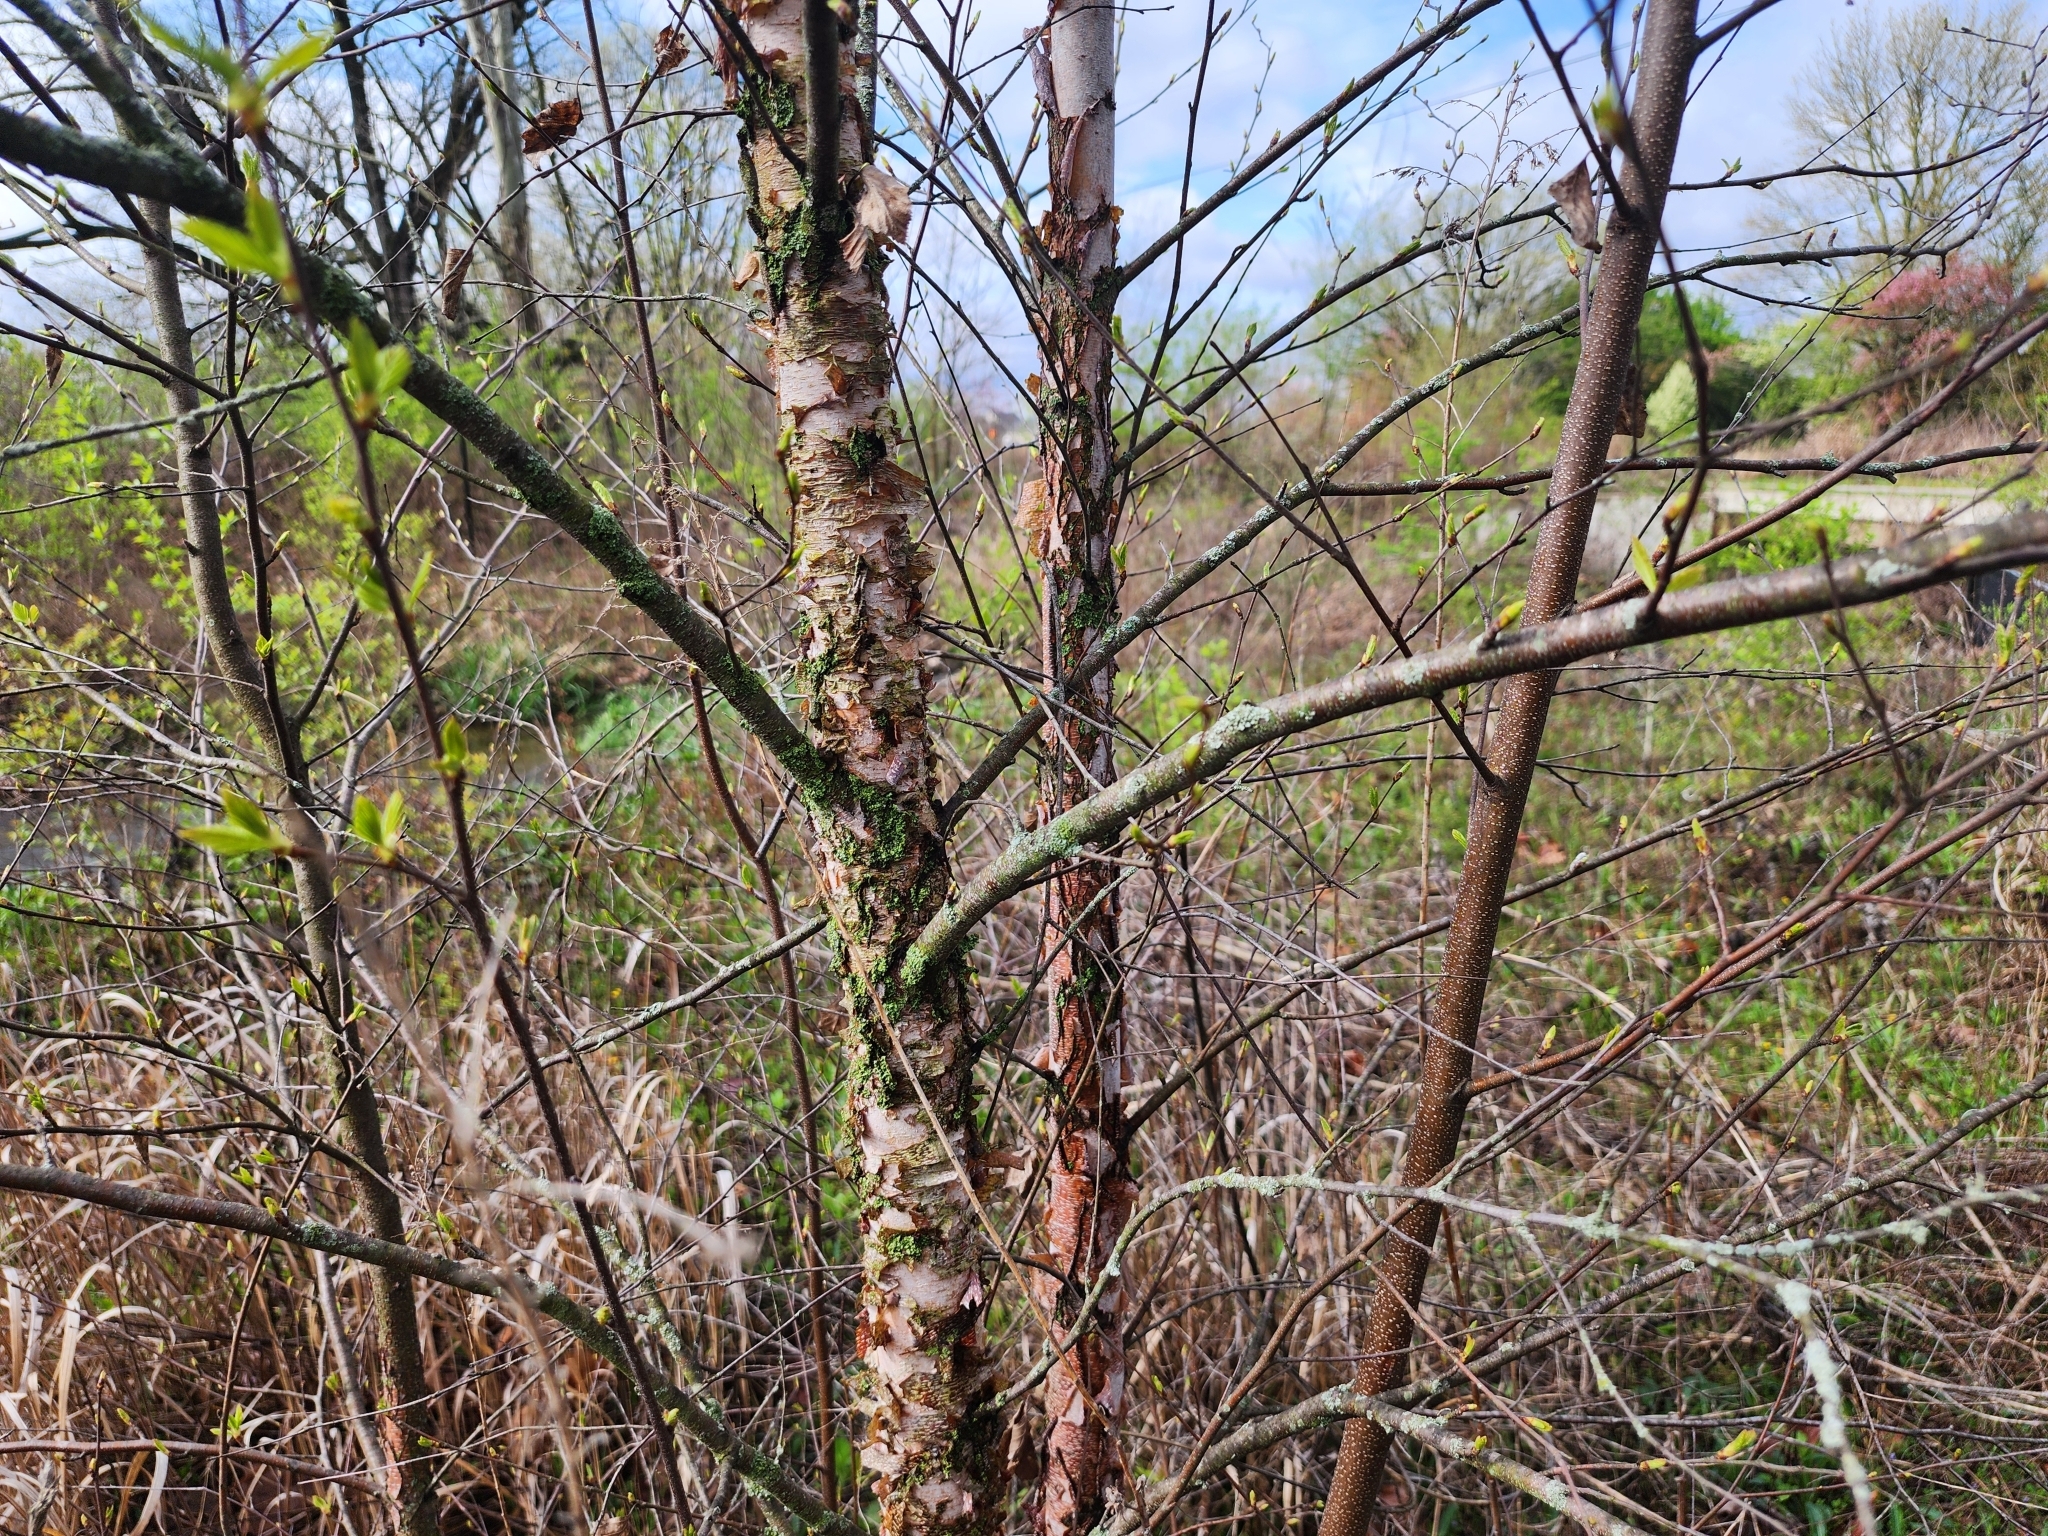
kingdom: Plantae
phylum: Tracheophyta
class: Magnoliopsida
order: Fagales
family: Betulaceae
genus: Betula
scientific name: Betula nigra
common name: Black birch
